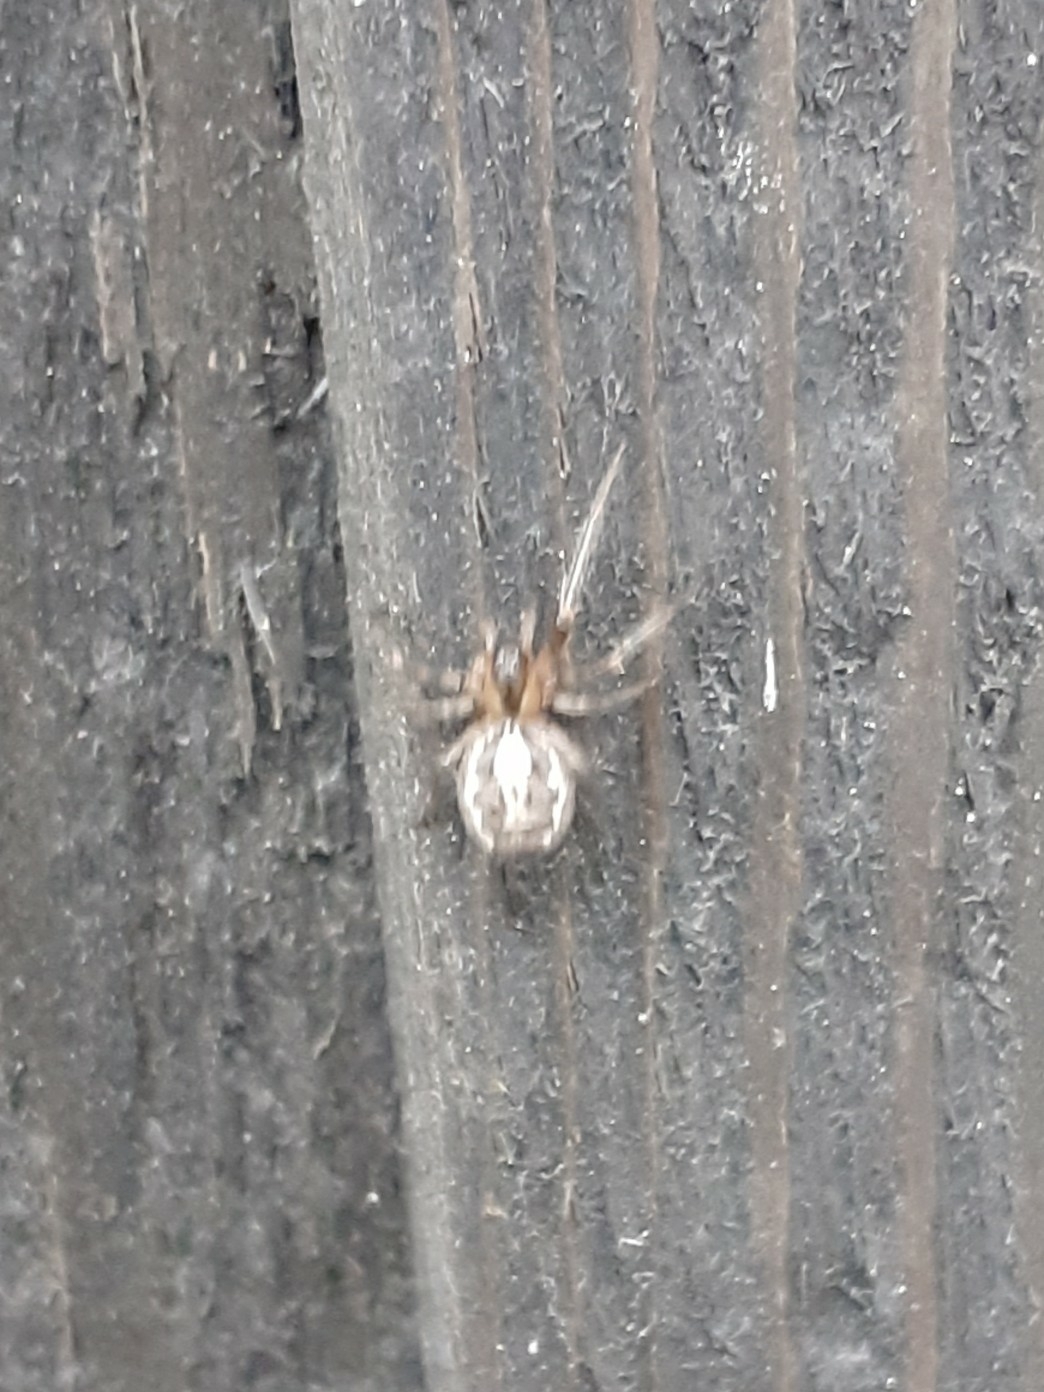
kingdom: Animalia
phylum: Arthropoda
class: Arachnida
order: Araneae
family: Araneidae
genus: Zygiella
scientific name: Zygiella x-notata
